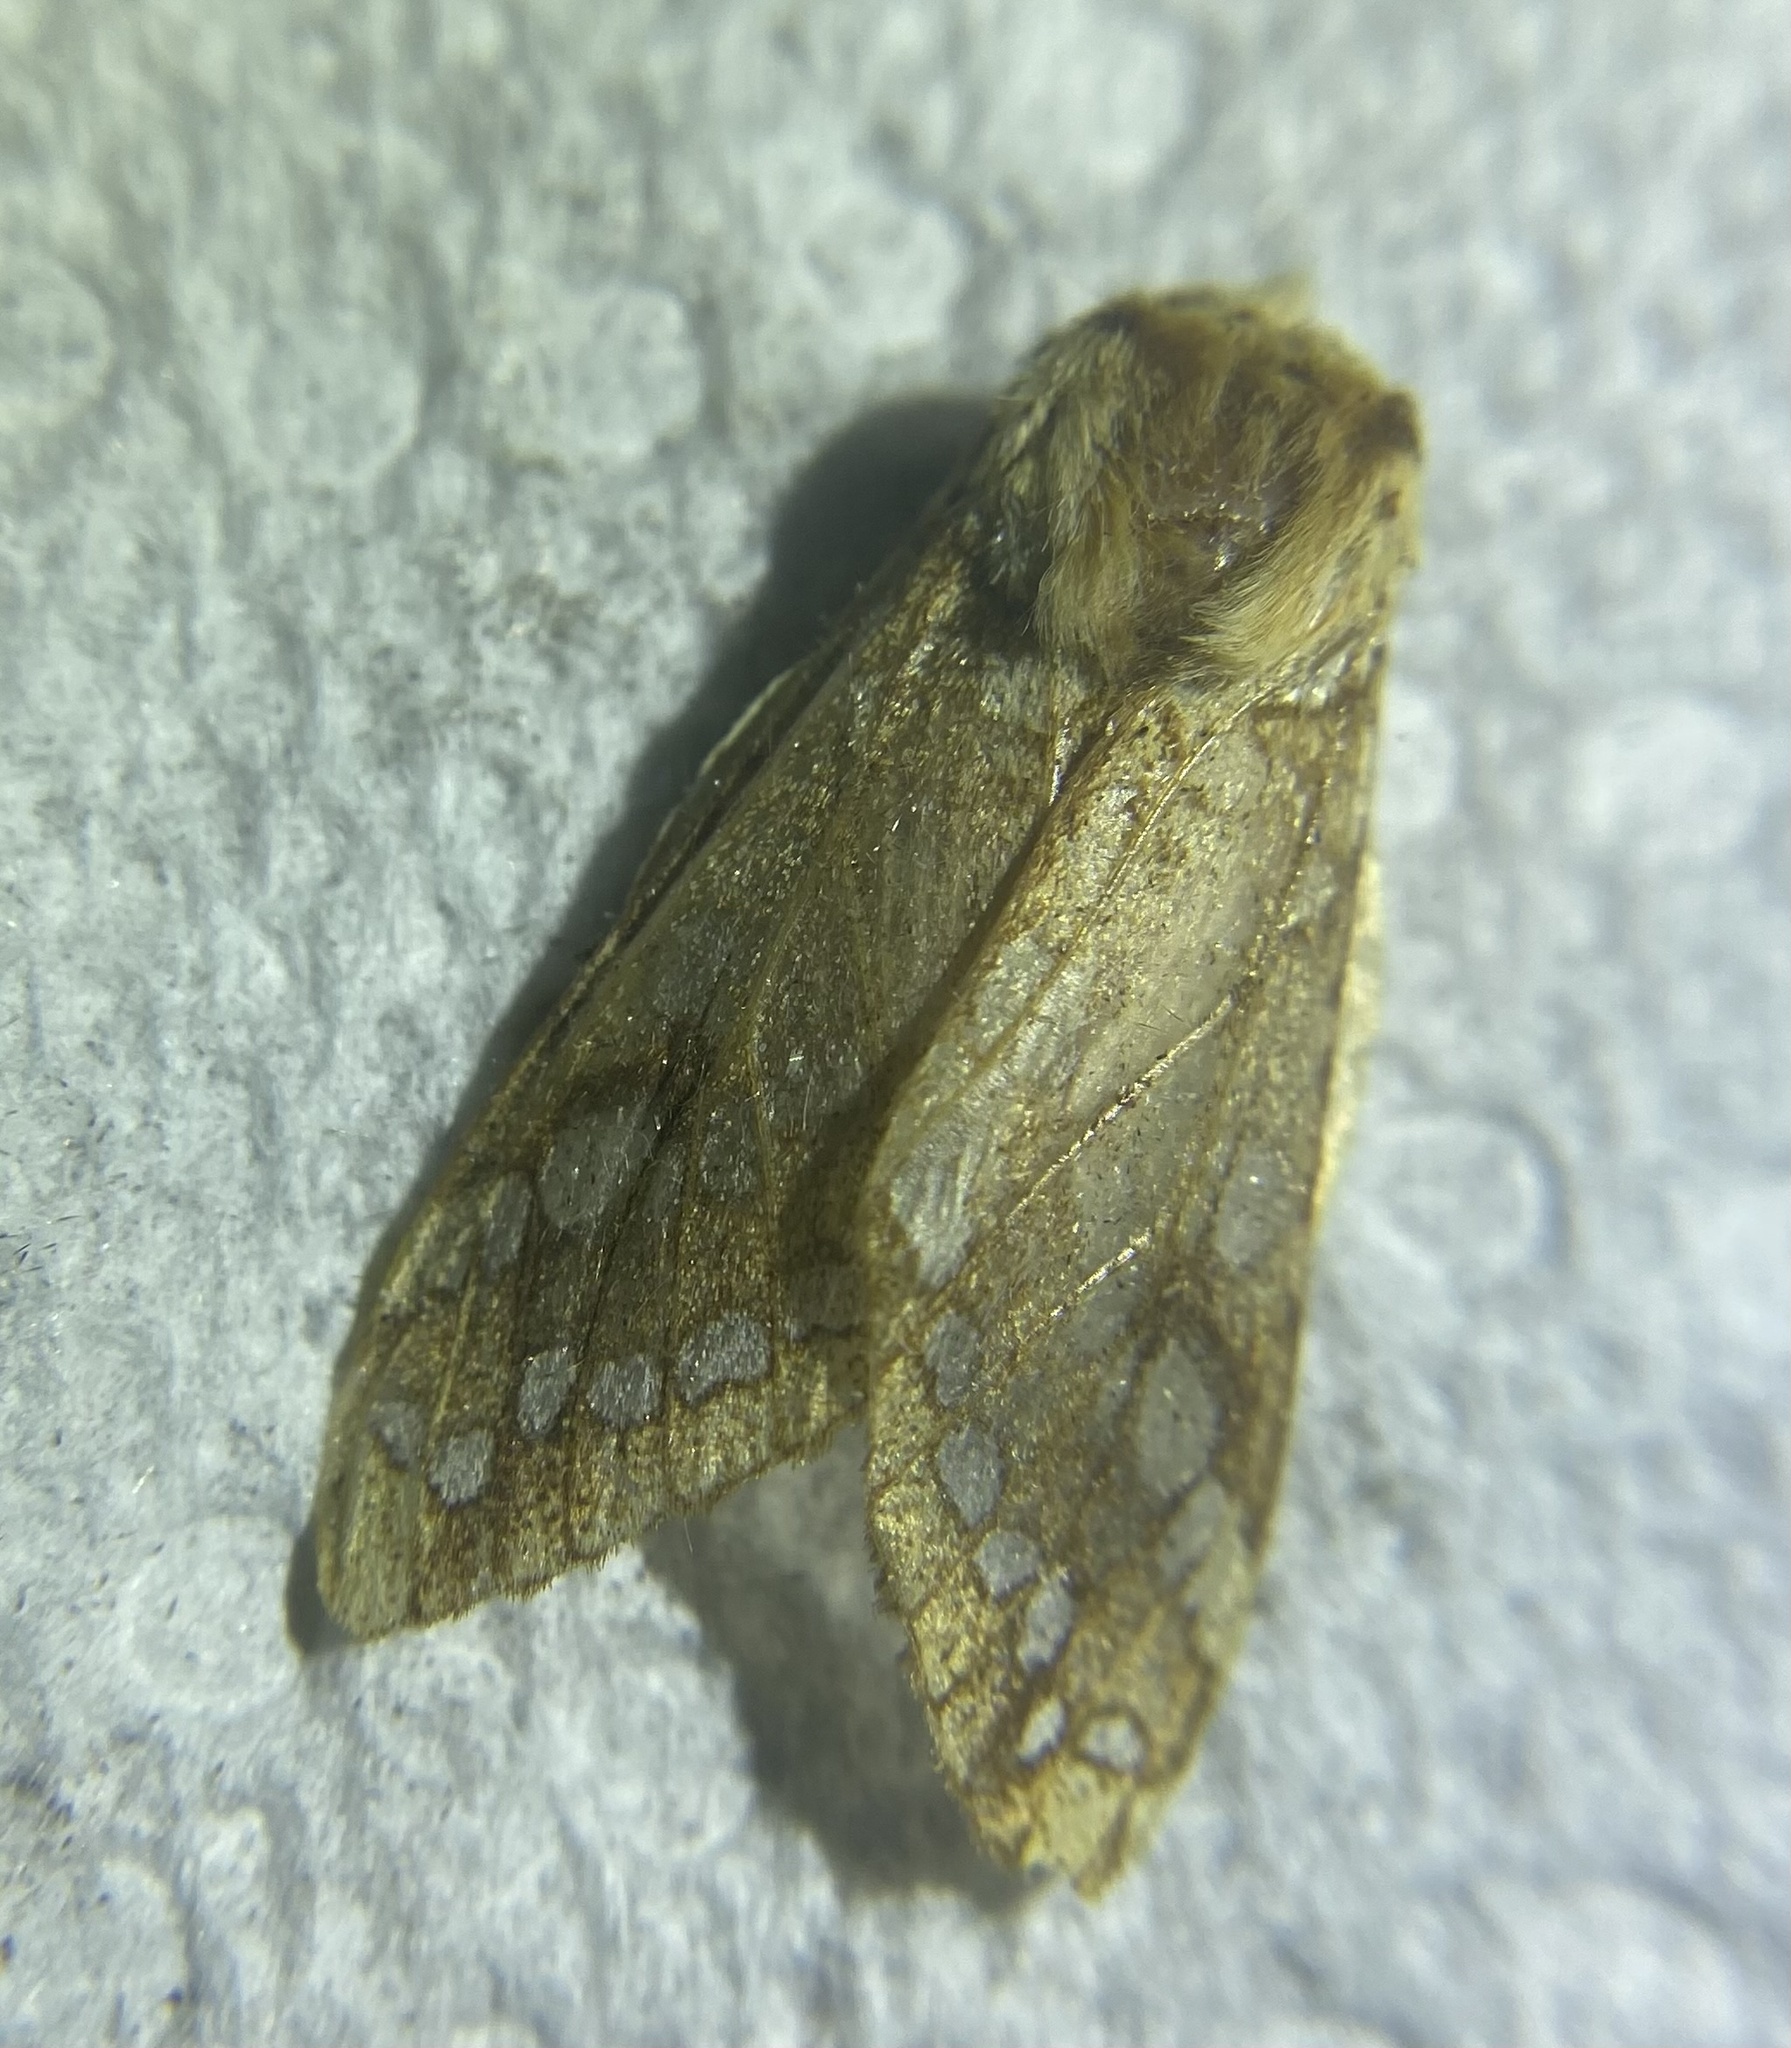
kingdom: Animalia
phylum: Arthropoda
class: Insecta
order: Lepidoptera
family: Erebidae
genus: Lophocampa
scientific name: Lophocampa caryae
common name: Hickory tussock moth
